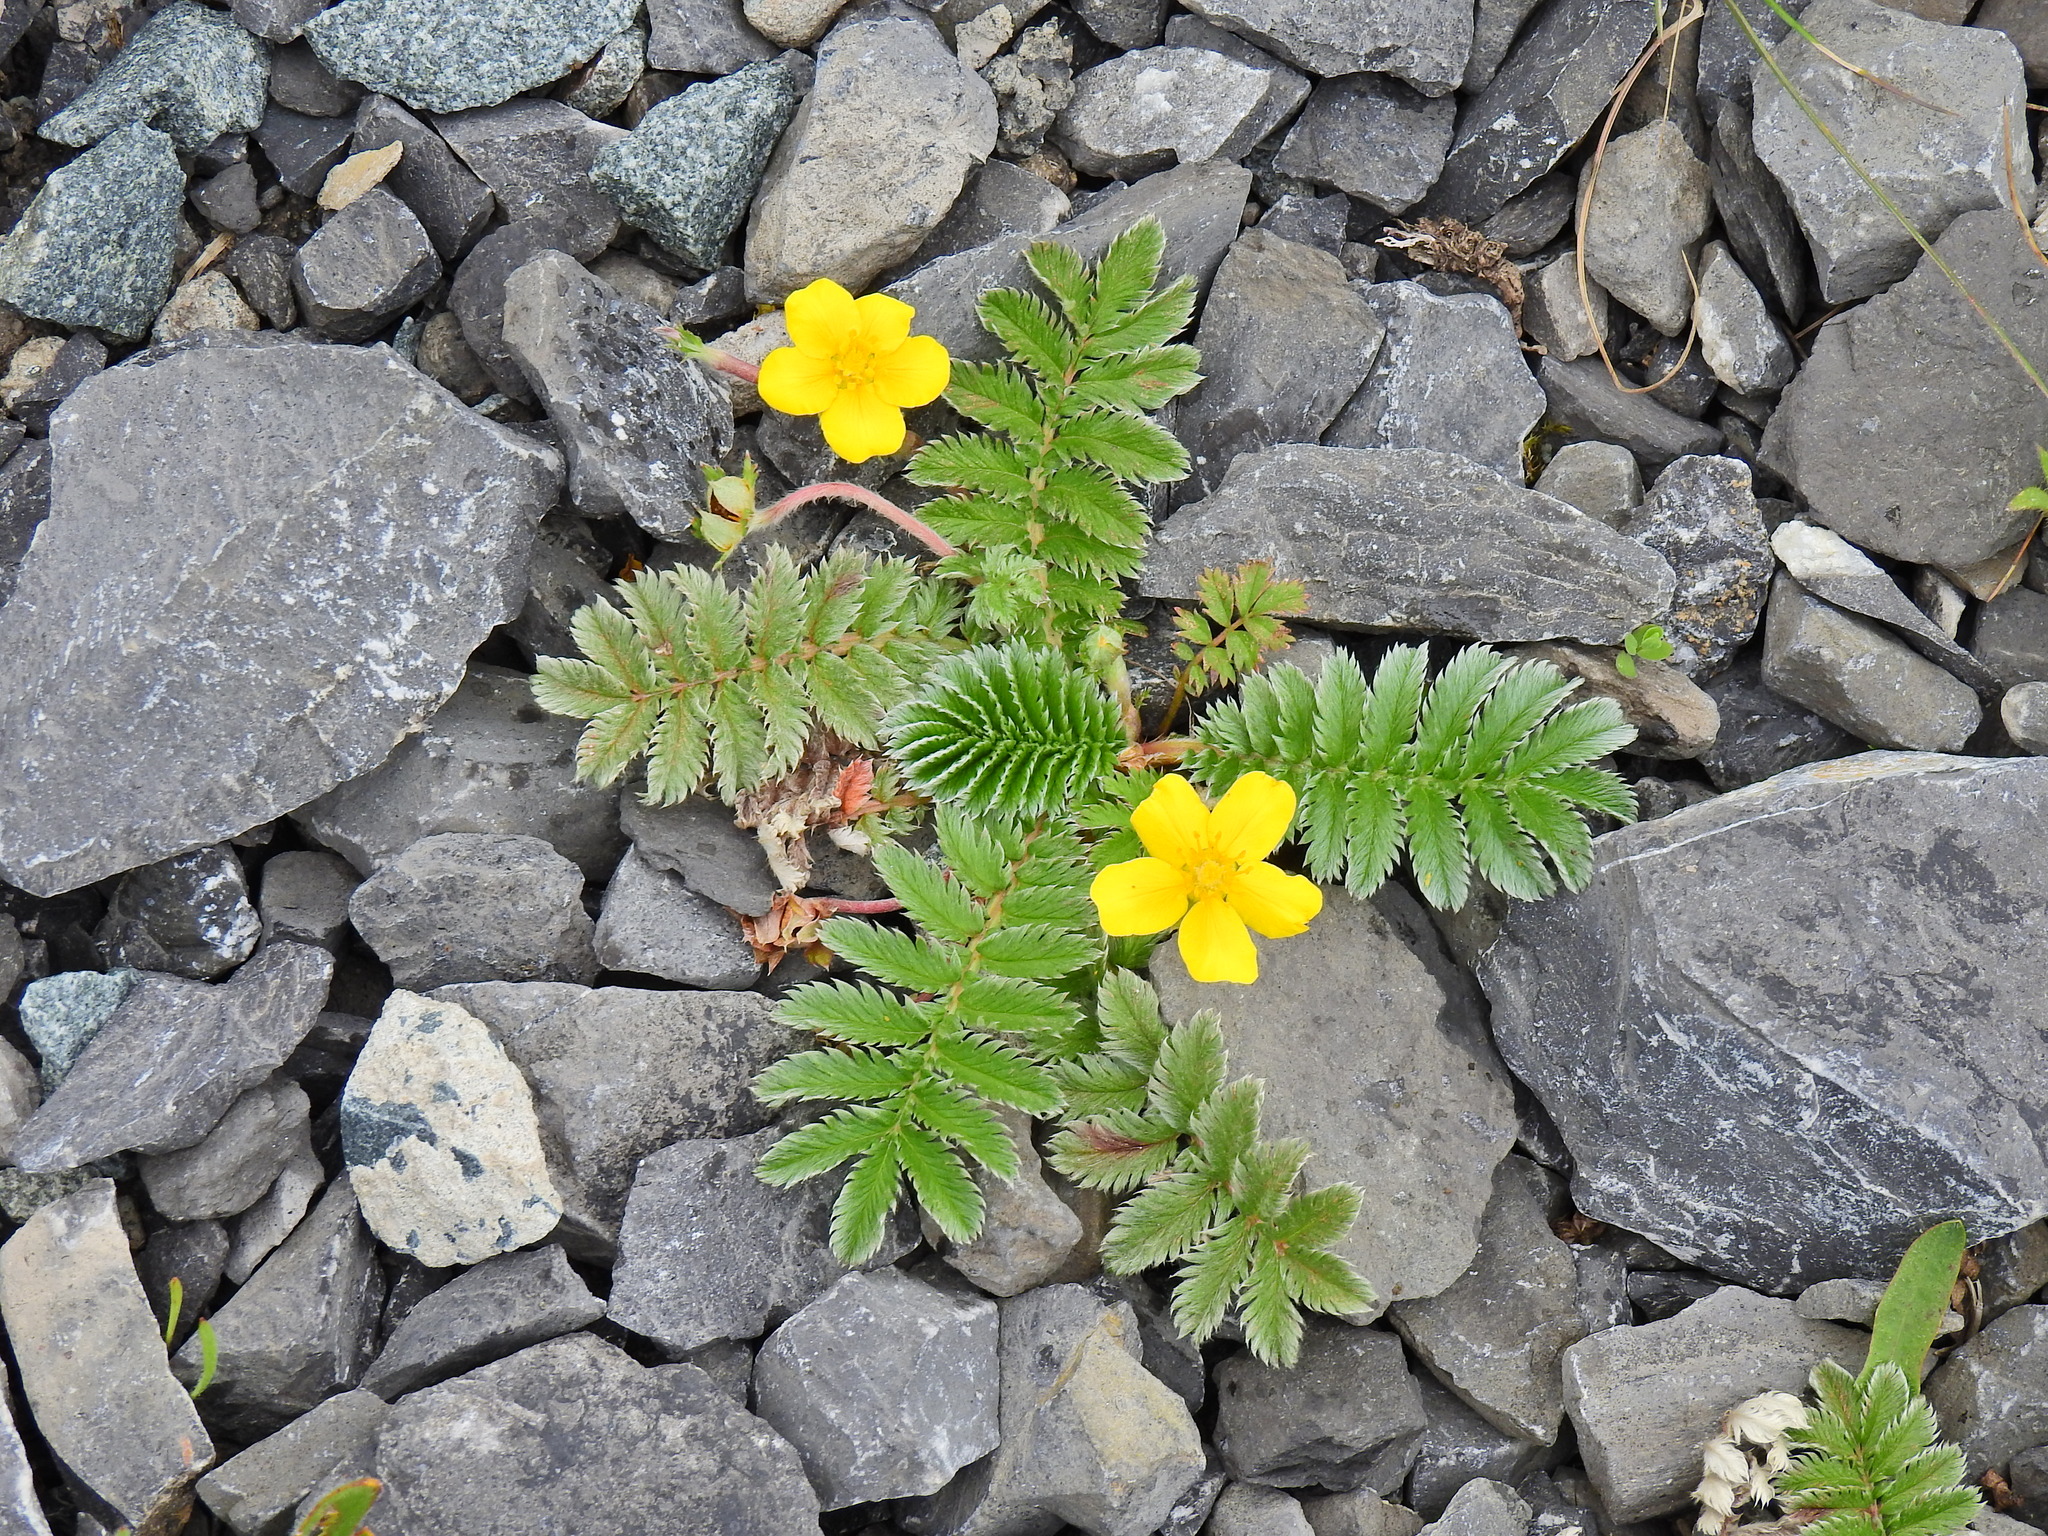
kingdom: Plantae
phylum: Tracheophyta
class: Magnoliopsida
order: Rosales
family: Rosaceae
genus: Argentina
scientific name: Argentina anserina
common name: Common silverweed
